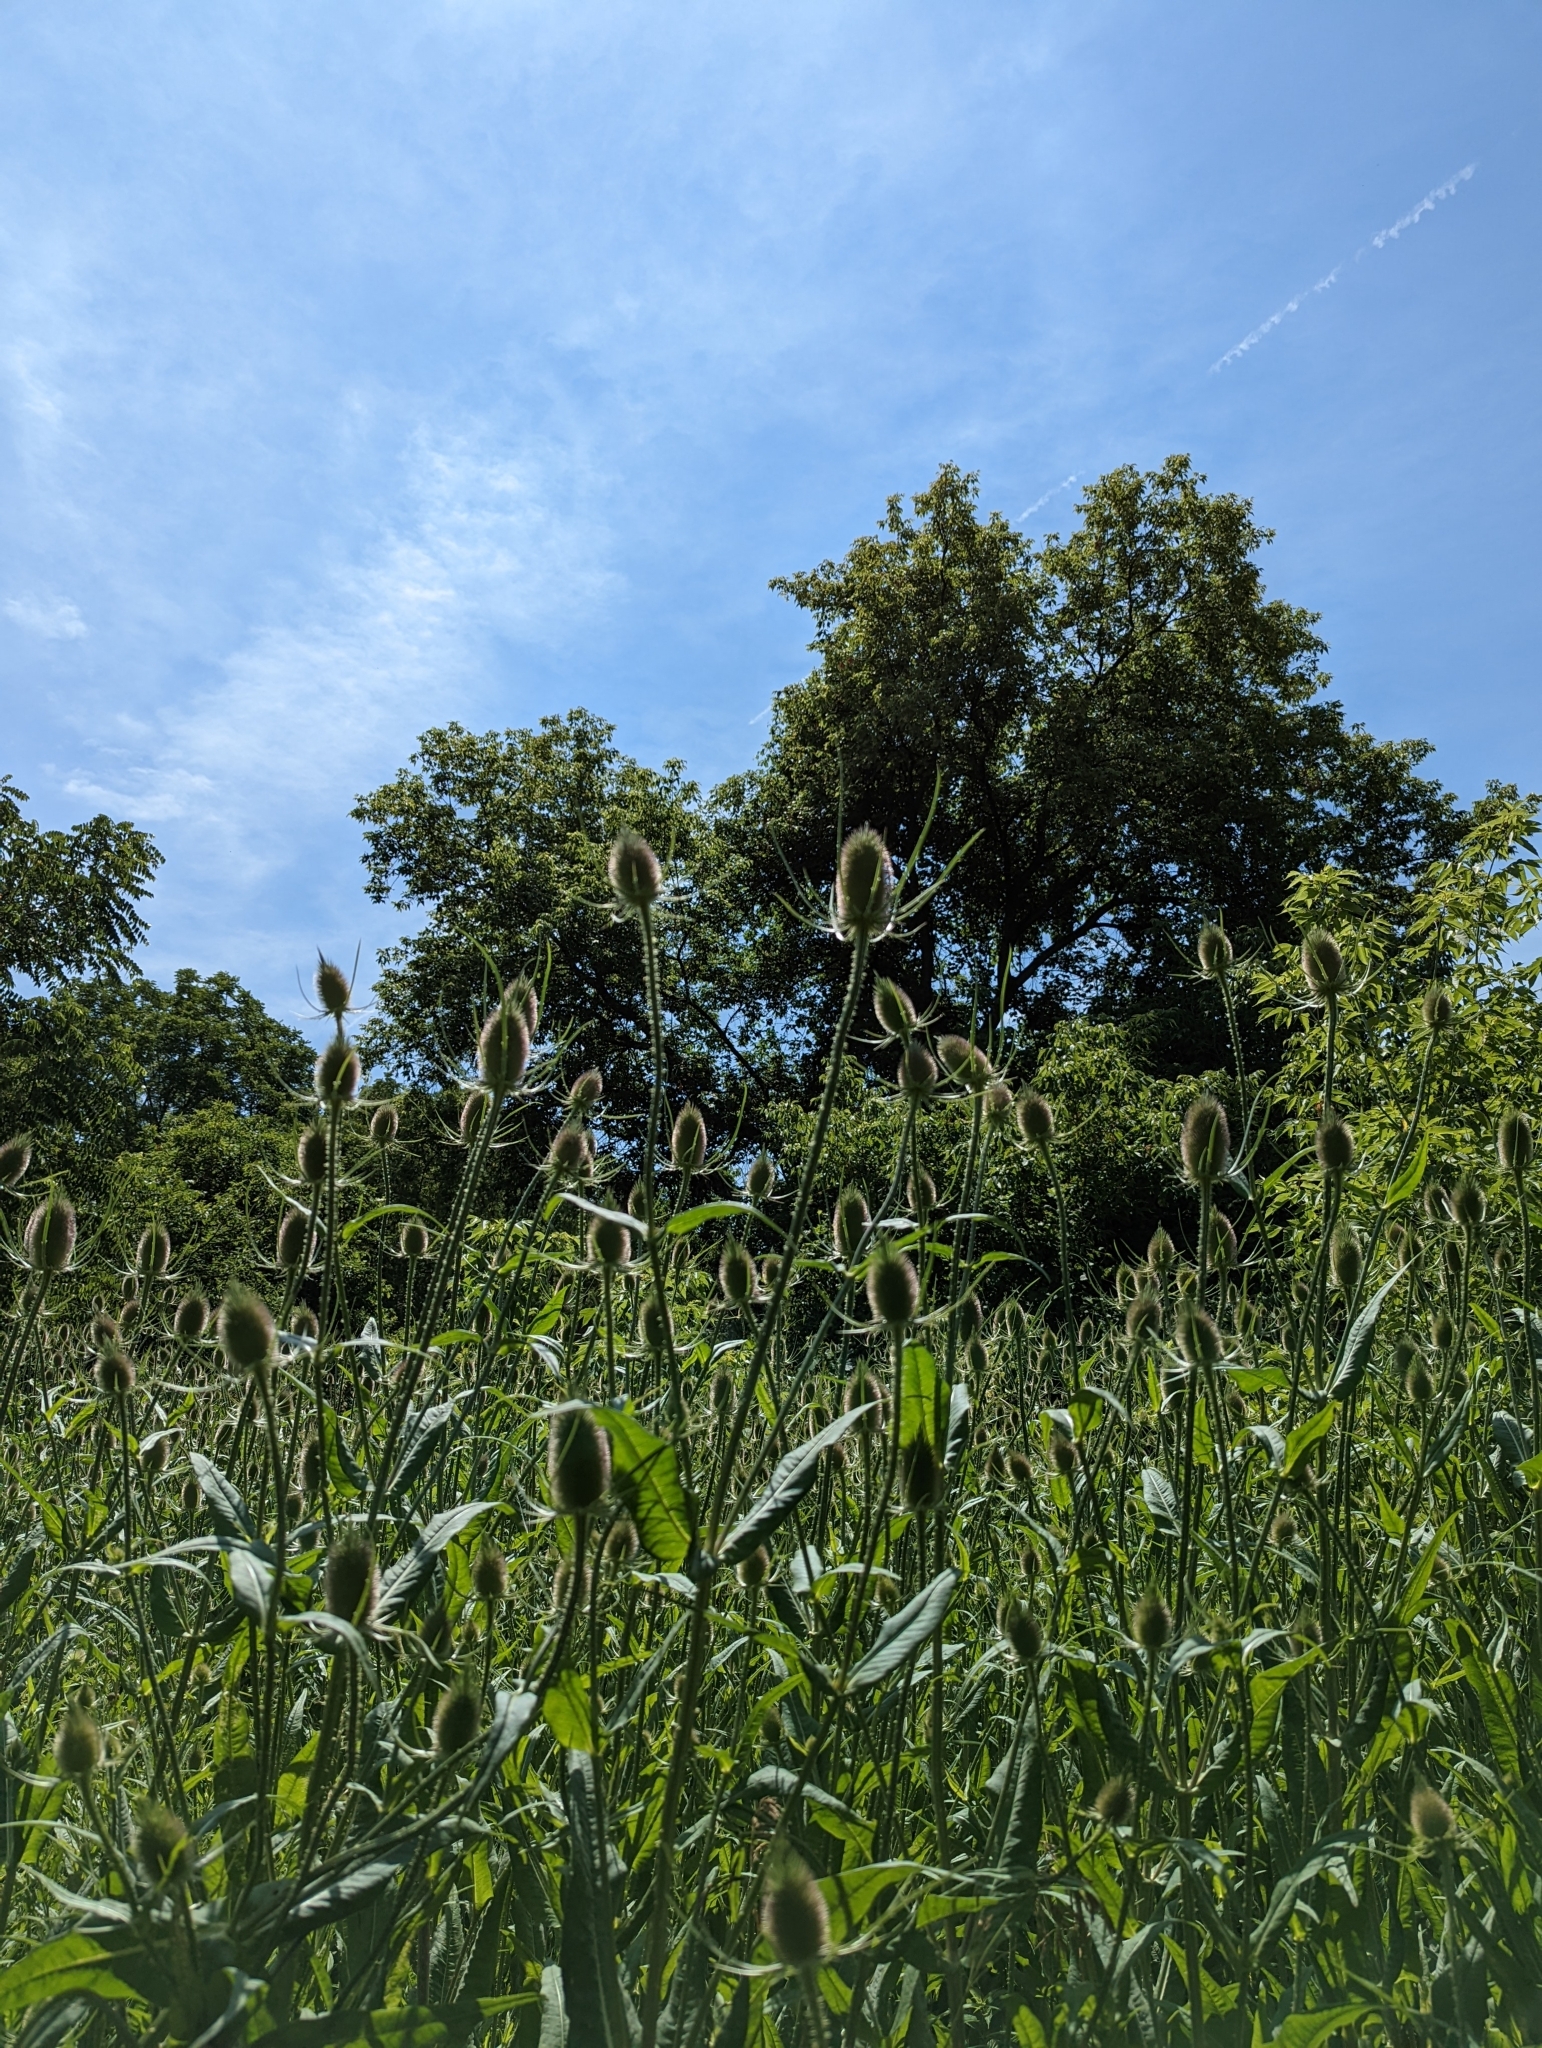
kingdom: Plantae
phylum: Tracheophyta
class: Magnoliopsida
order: Dipsacales
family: Caprifoliaceae
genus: Dipsacus
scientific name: Dipsacus fullonum
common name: Teasel
